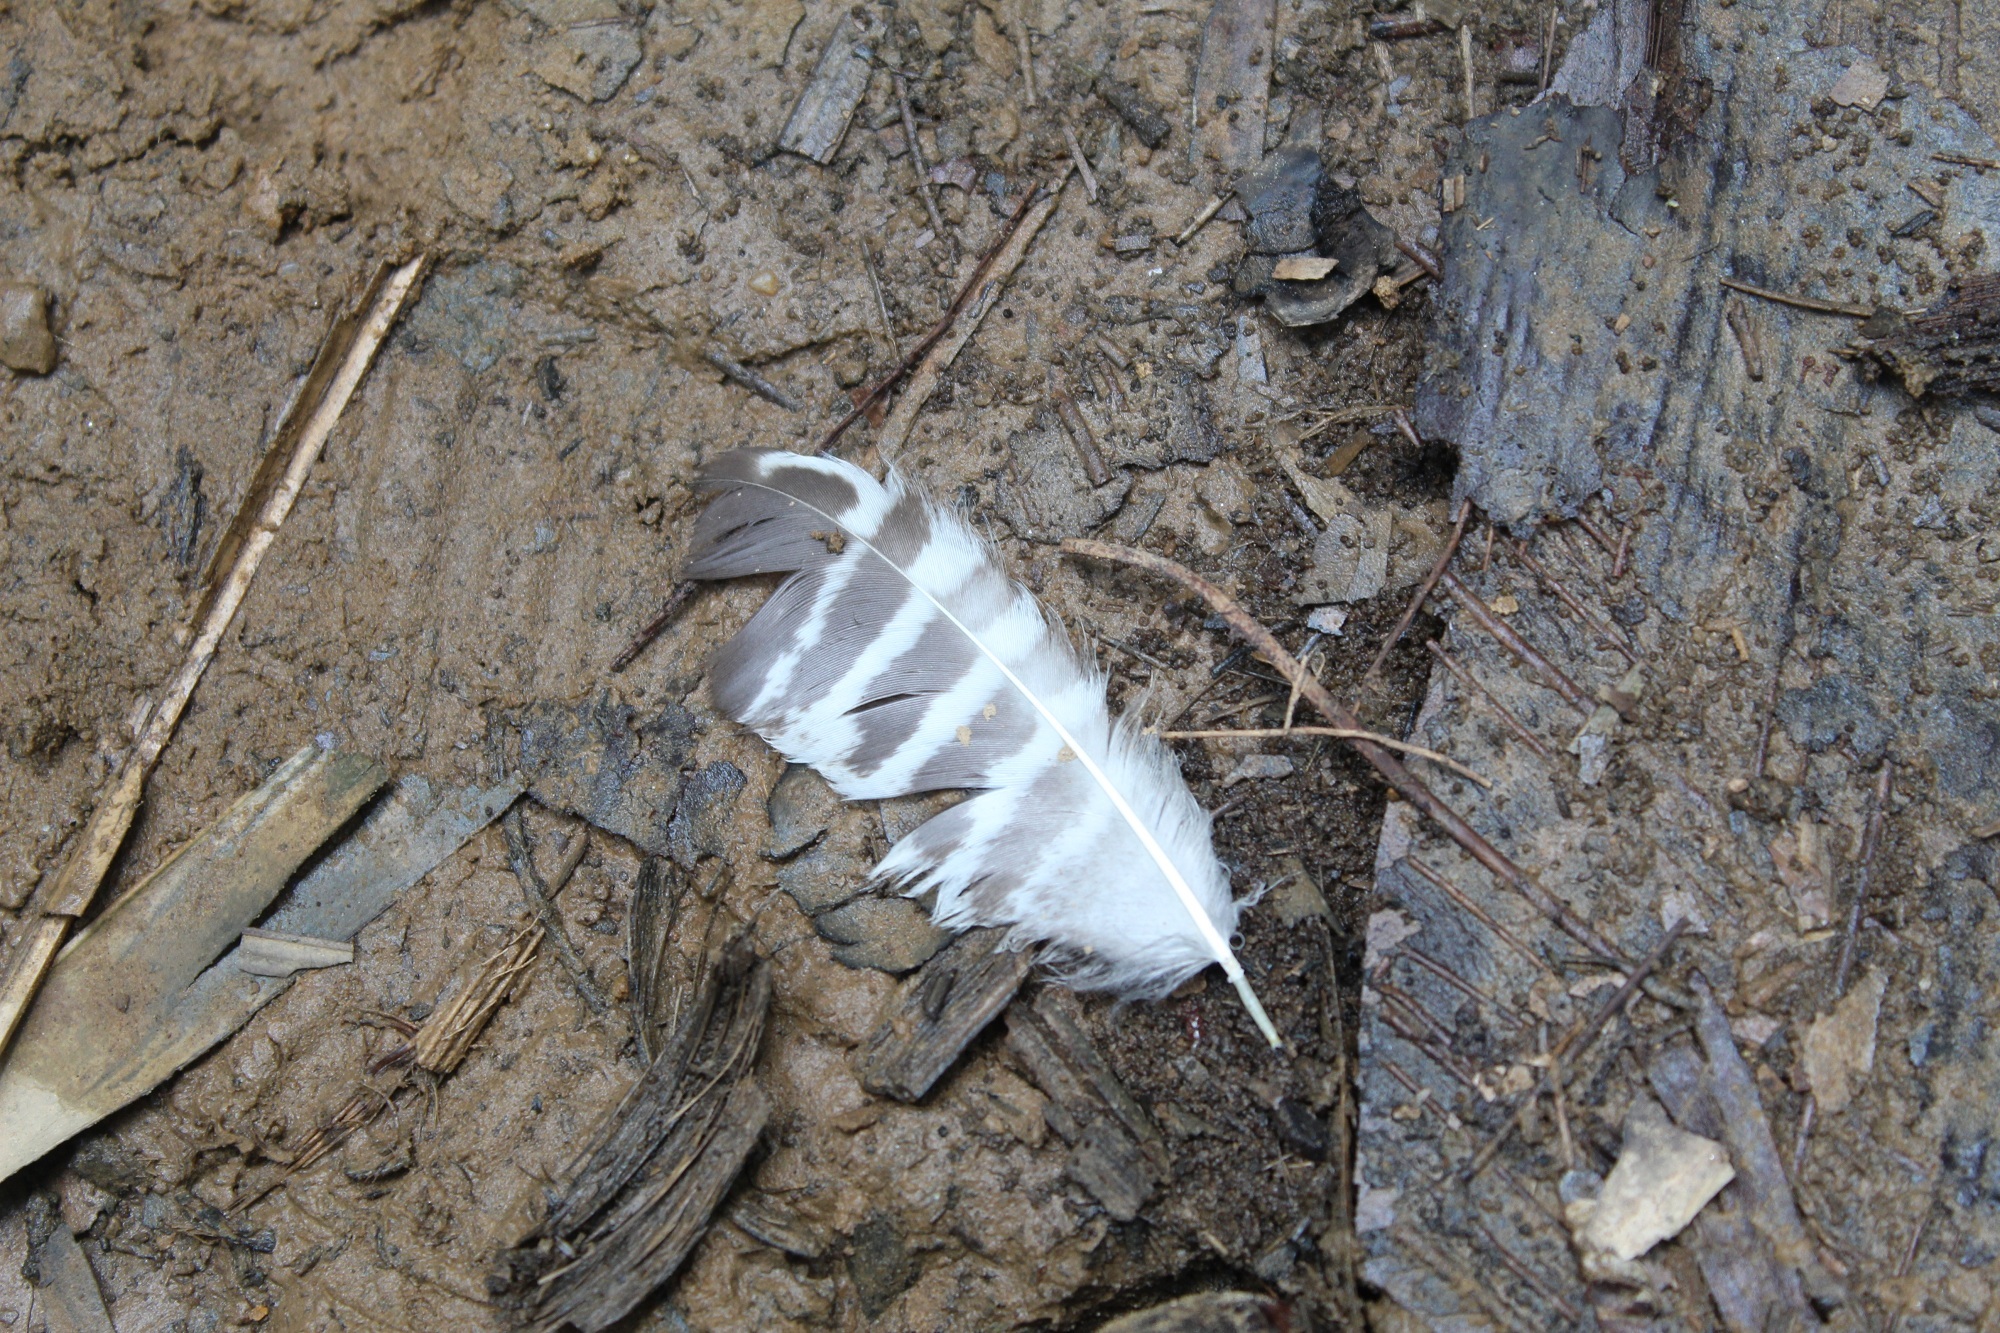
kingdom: Animalia
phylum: Chordata
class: Aves
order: Strigiformes
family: Strigidae
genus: Strix
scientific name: Strix nigrolineata
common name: Black-and-white owl
